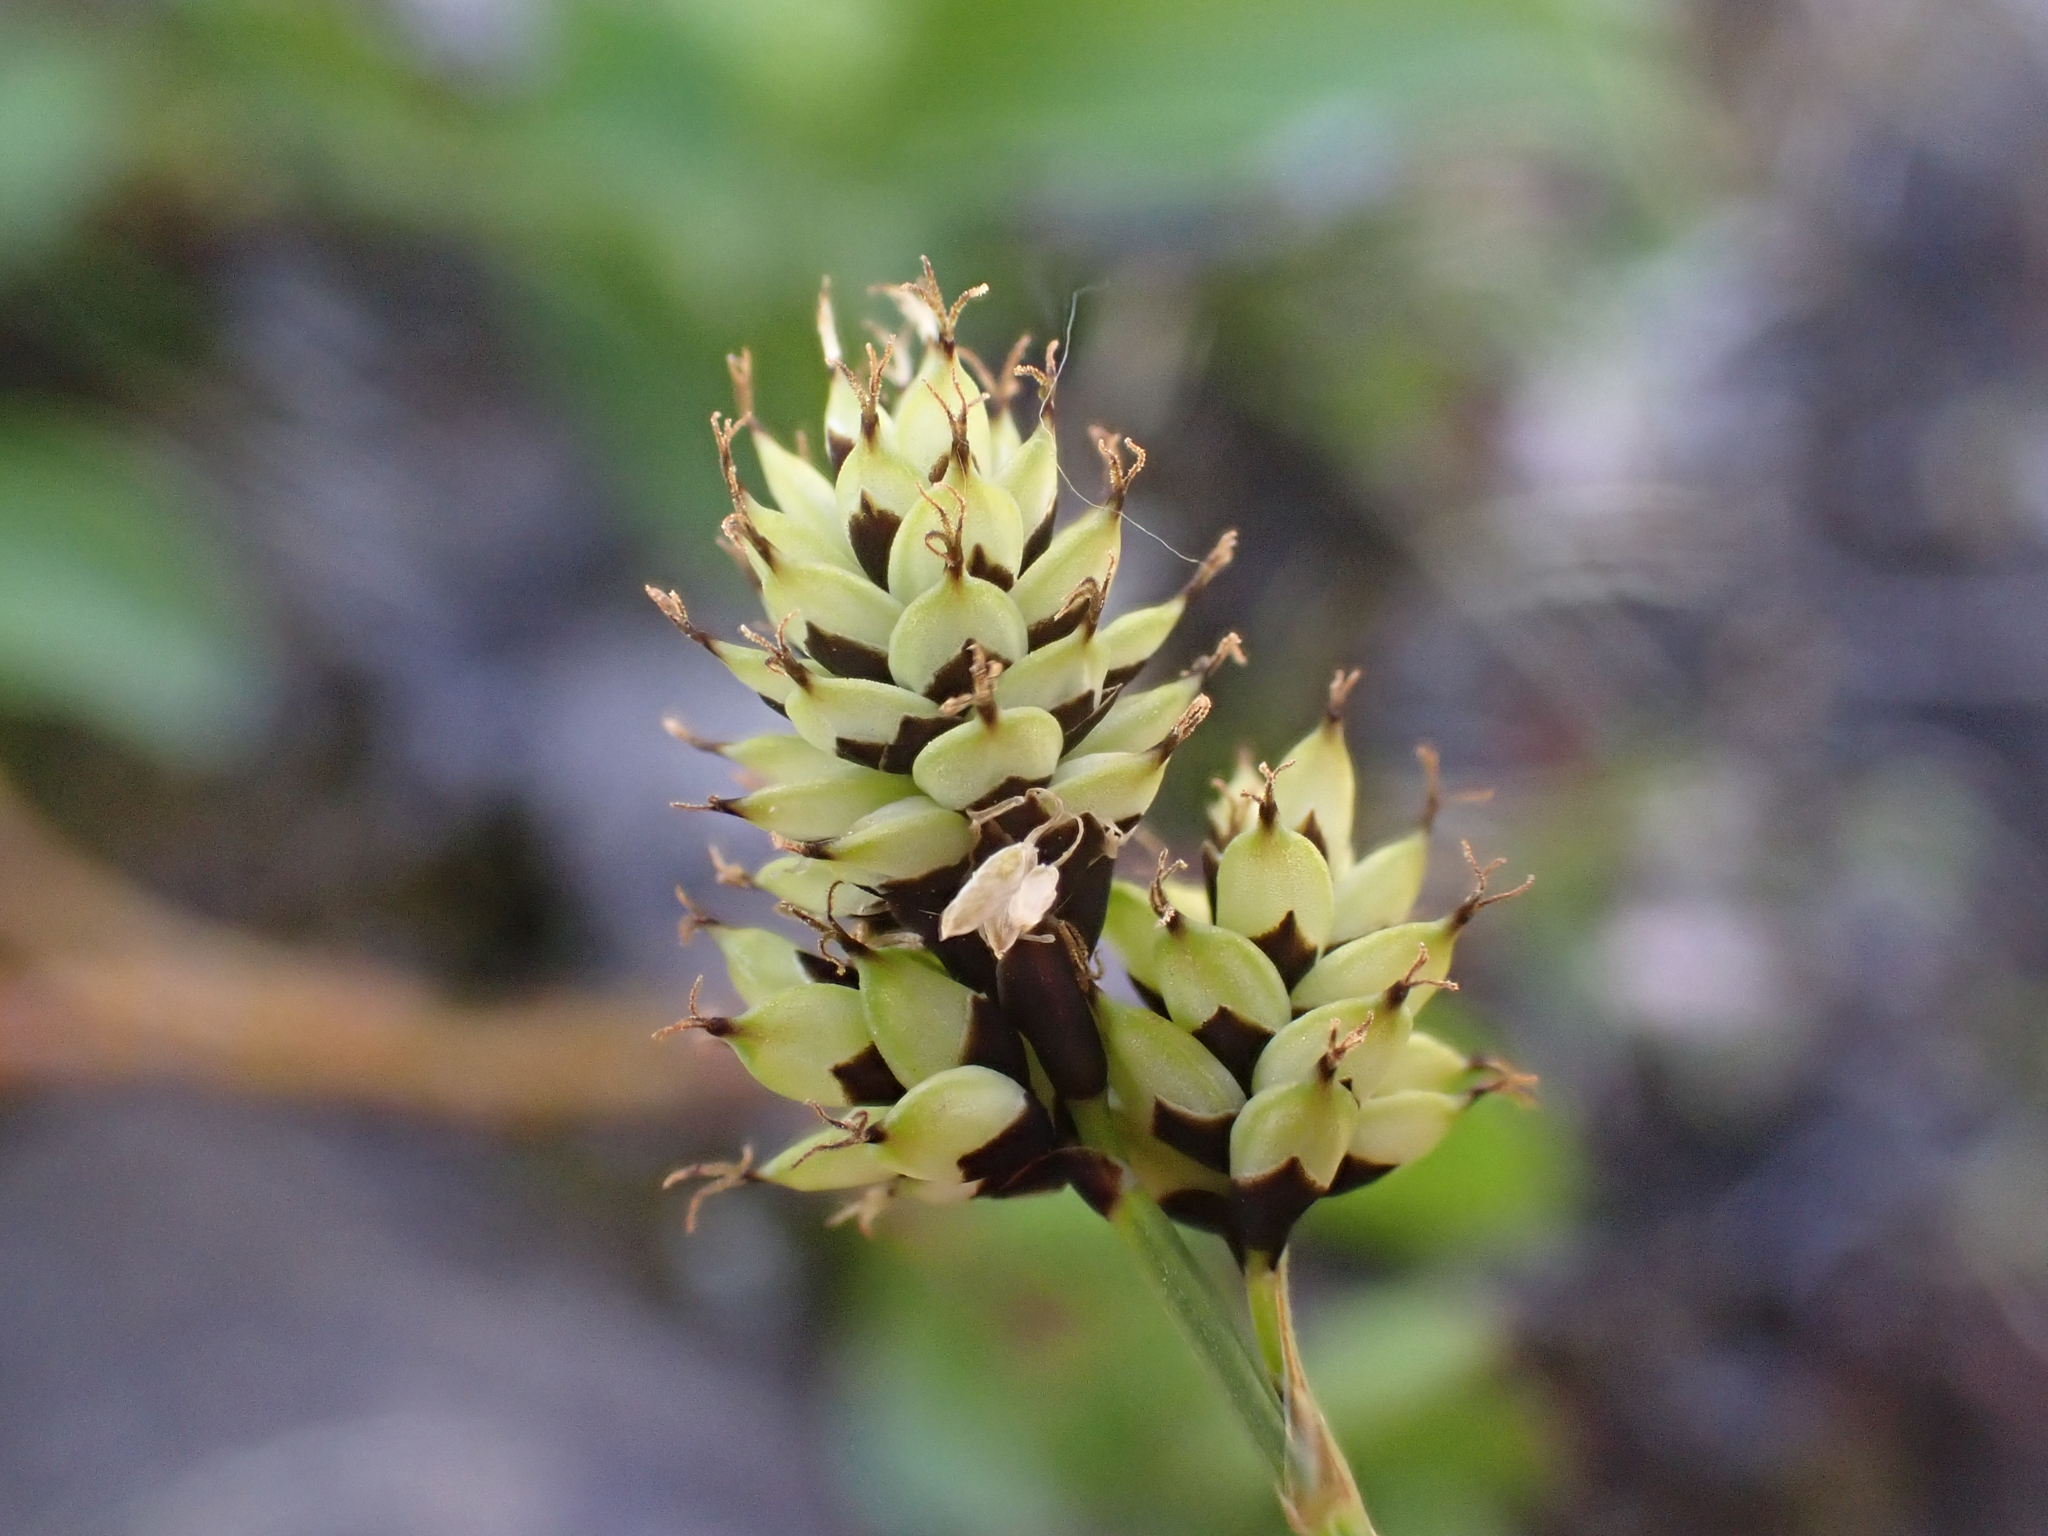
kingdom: Plantae
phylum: Tracheophyta
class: Liliopsida
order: Poales
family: Cyperaceae
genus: Carex
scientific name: Carex media
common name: Alpine sedge
